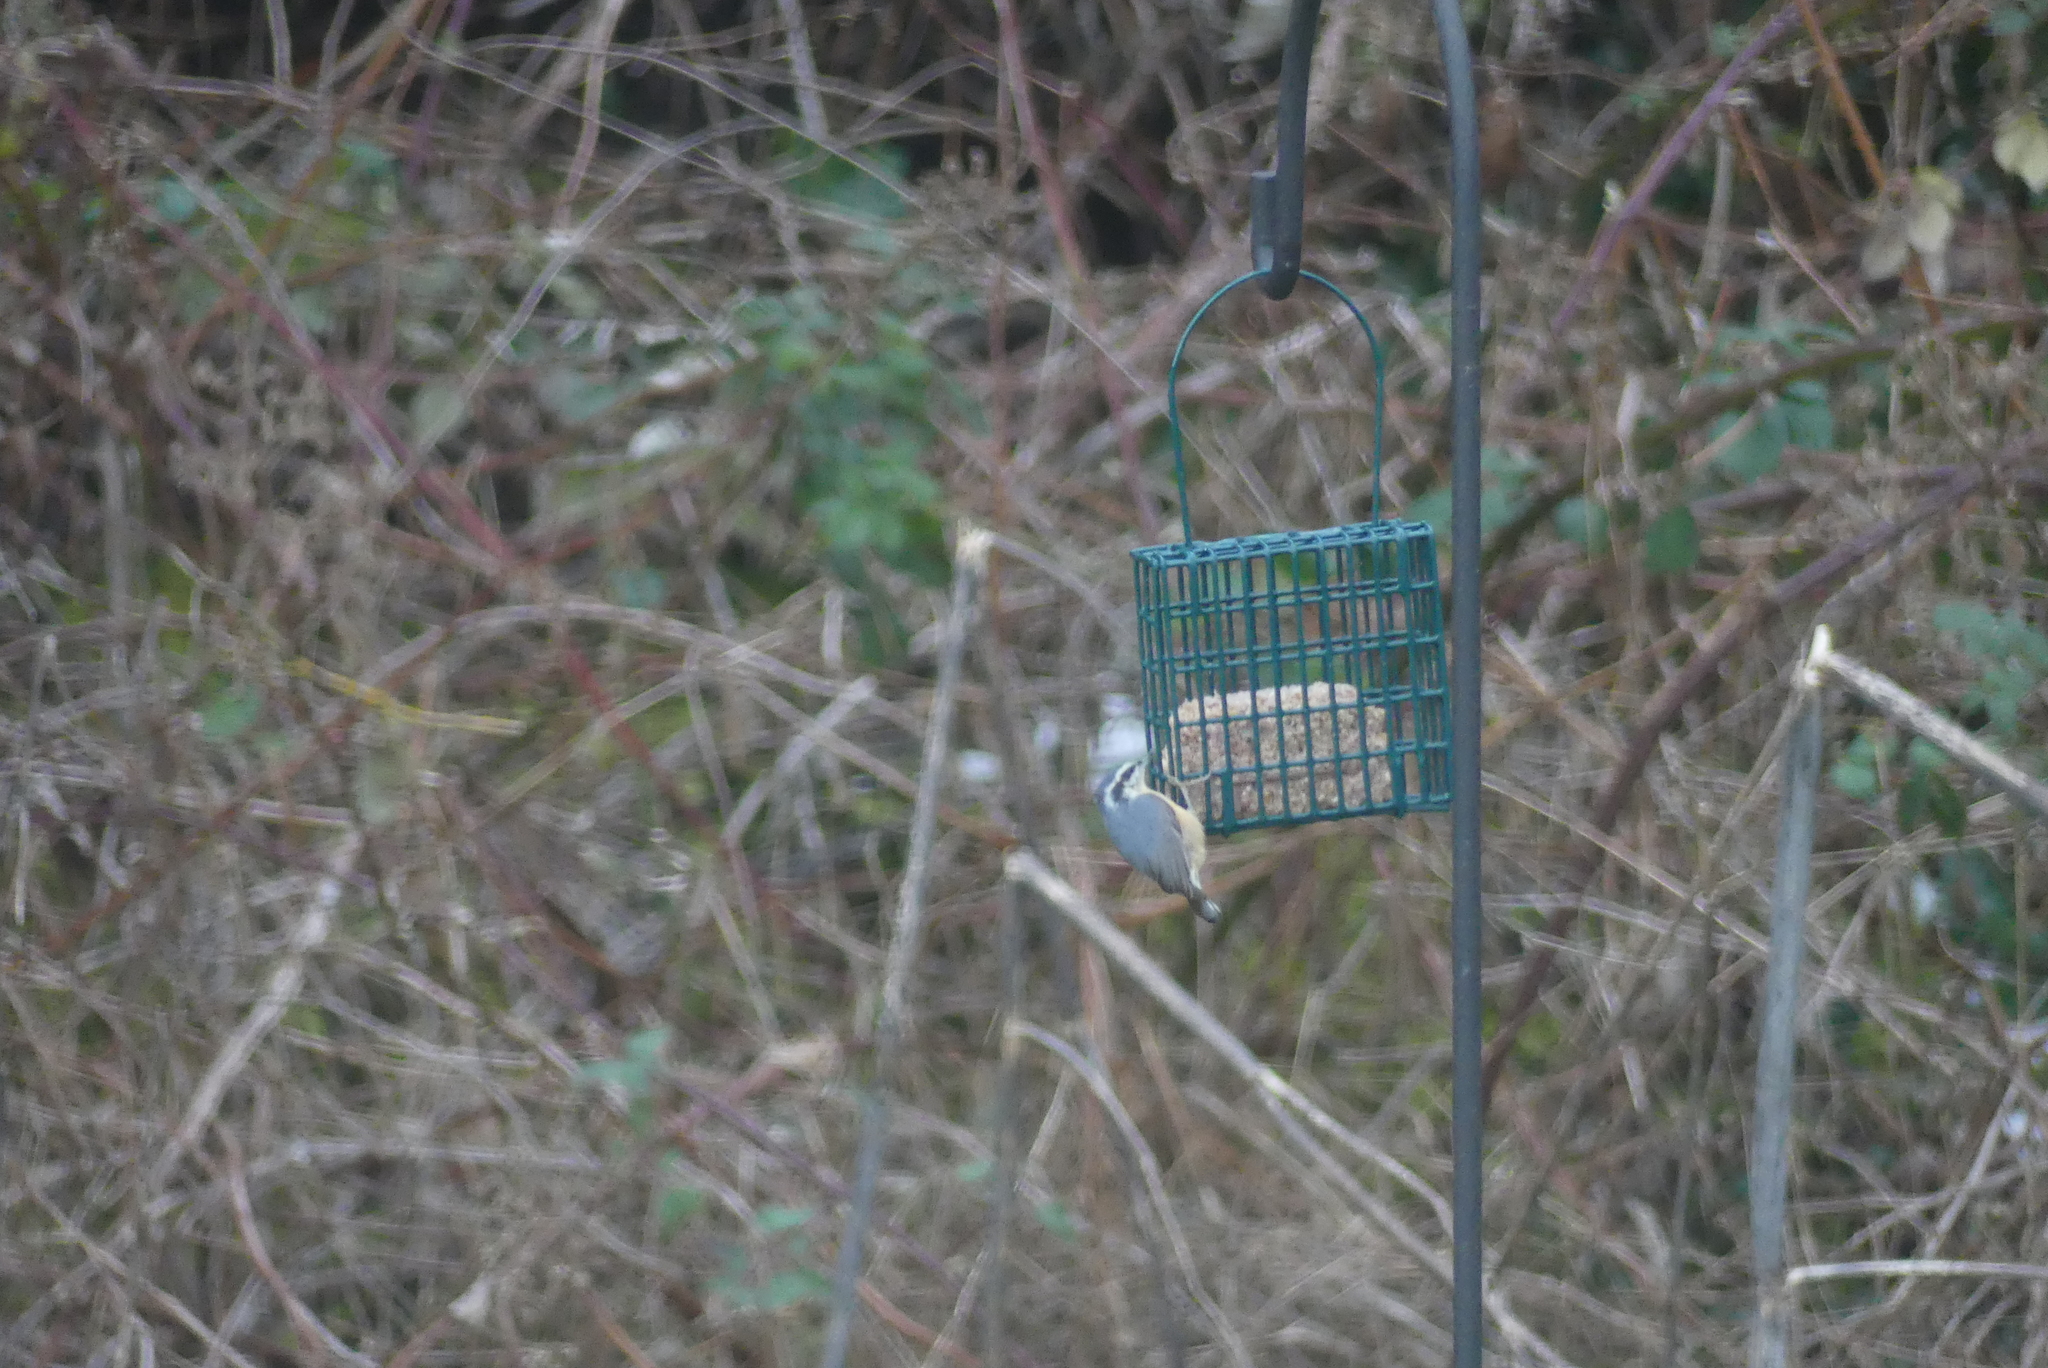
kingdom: Animalia
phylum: Chordata
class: Aves
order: Passeriformes
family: Sittidae
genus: Sitta
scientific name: Sitta canadensis
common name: Red-breasted nuthatch
